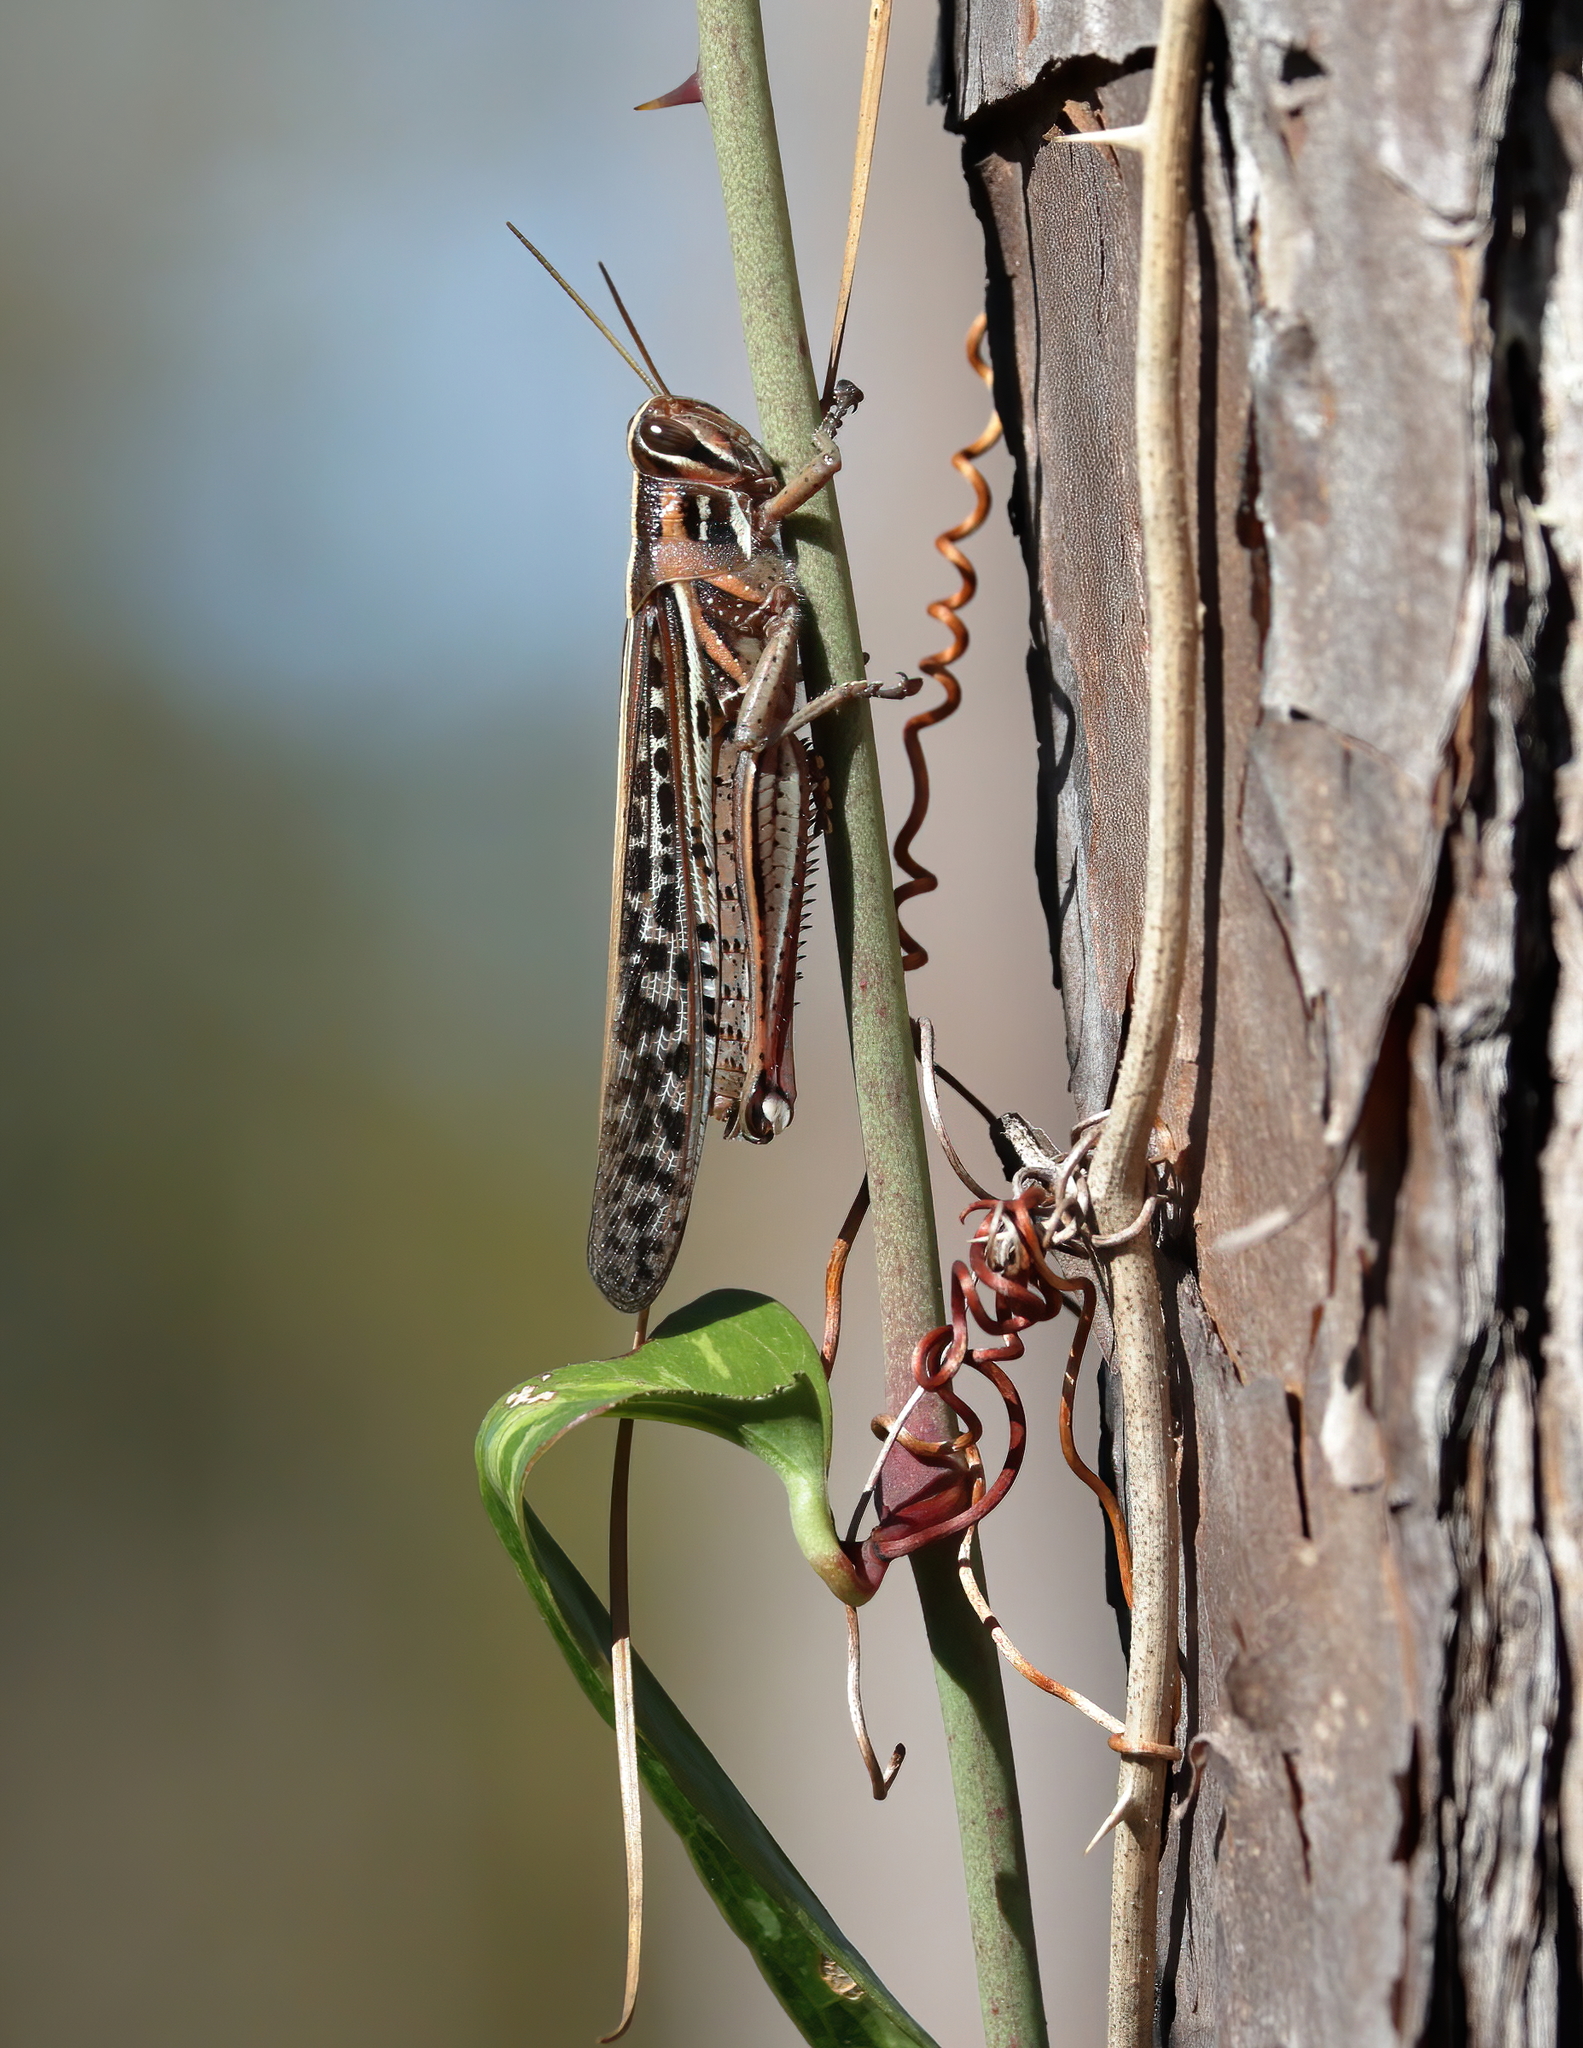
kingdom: Animalia
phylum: Arthropoda
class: Insecta
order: Orthoptera
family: Acrididae
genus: Schistocerca
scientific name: Schistocerca americana
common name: American bird locust
